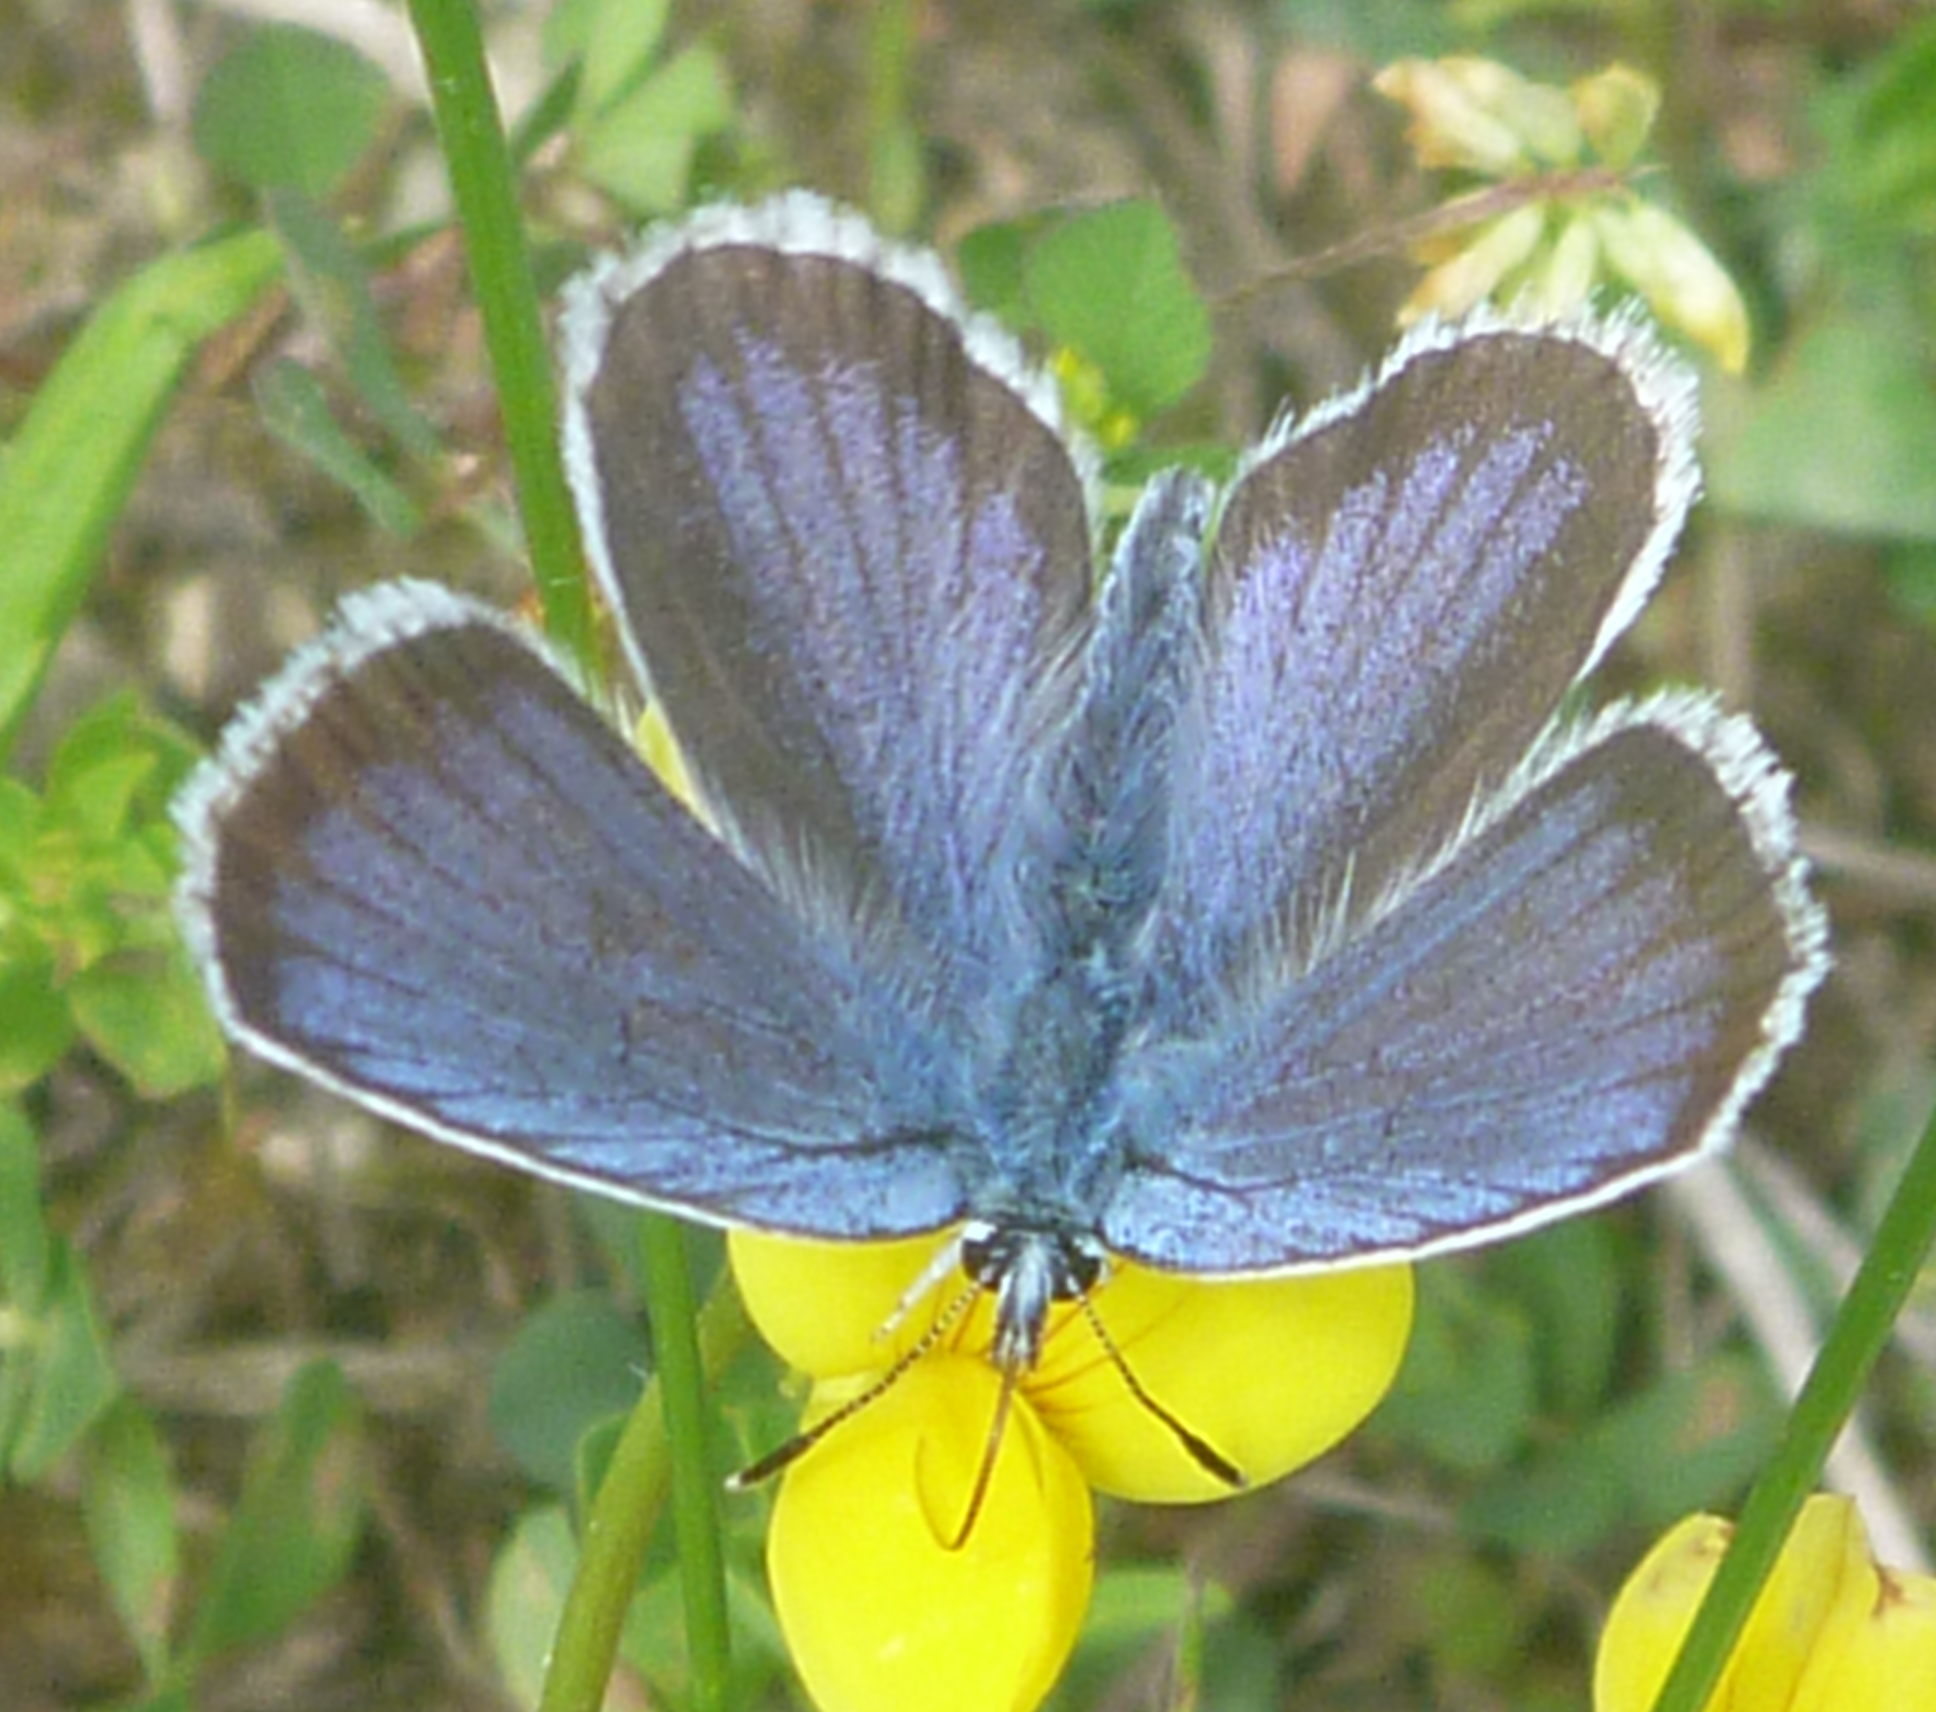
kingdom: Animalia
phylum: Arthropoda
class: Insecta
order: Lepidoptera
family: Lycaenidae
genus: Plebejus
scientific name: Plebejus argus
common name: Silver-studded blue
